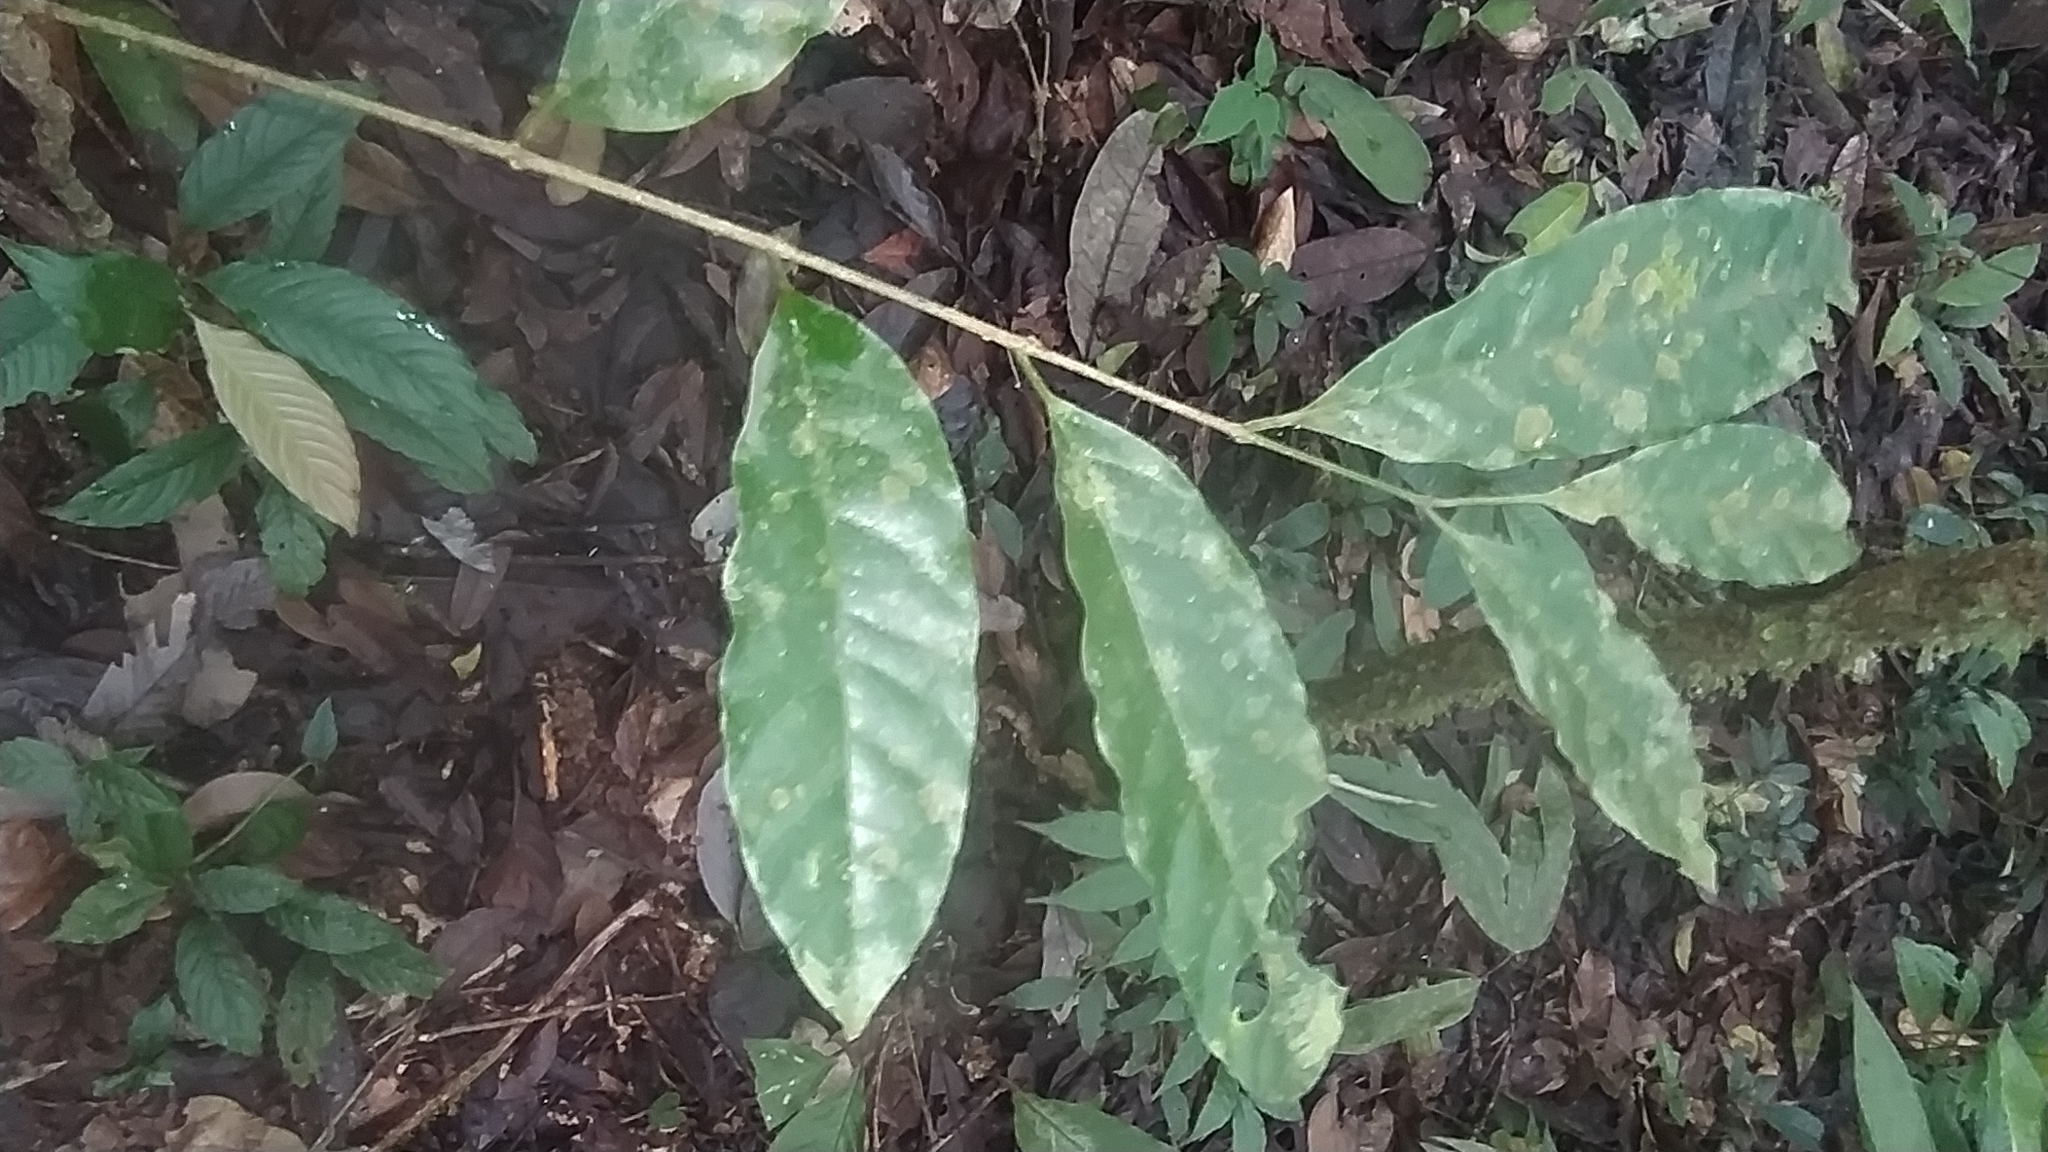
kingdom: Plantae
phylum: Tracheophyta
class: Magnoliopsida
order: Sapindales
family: Simaroubaceae
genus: Picrolemma
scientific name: Picrolemma sprucei
